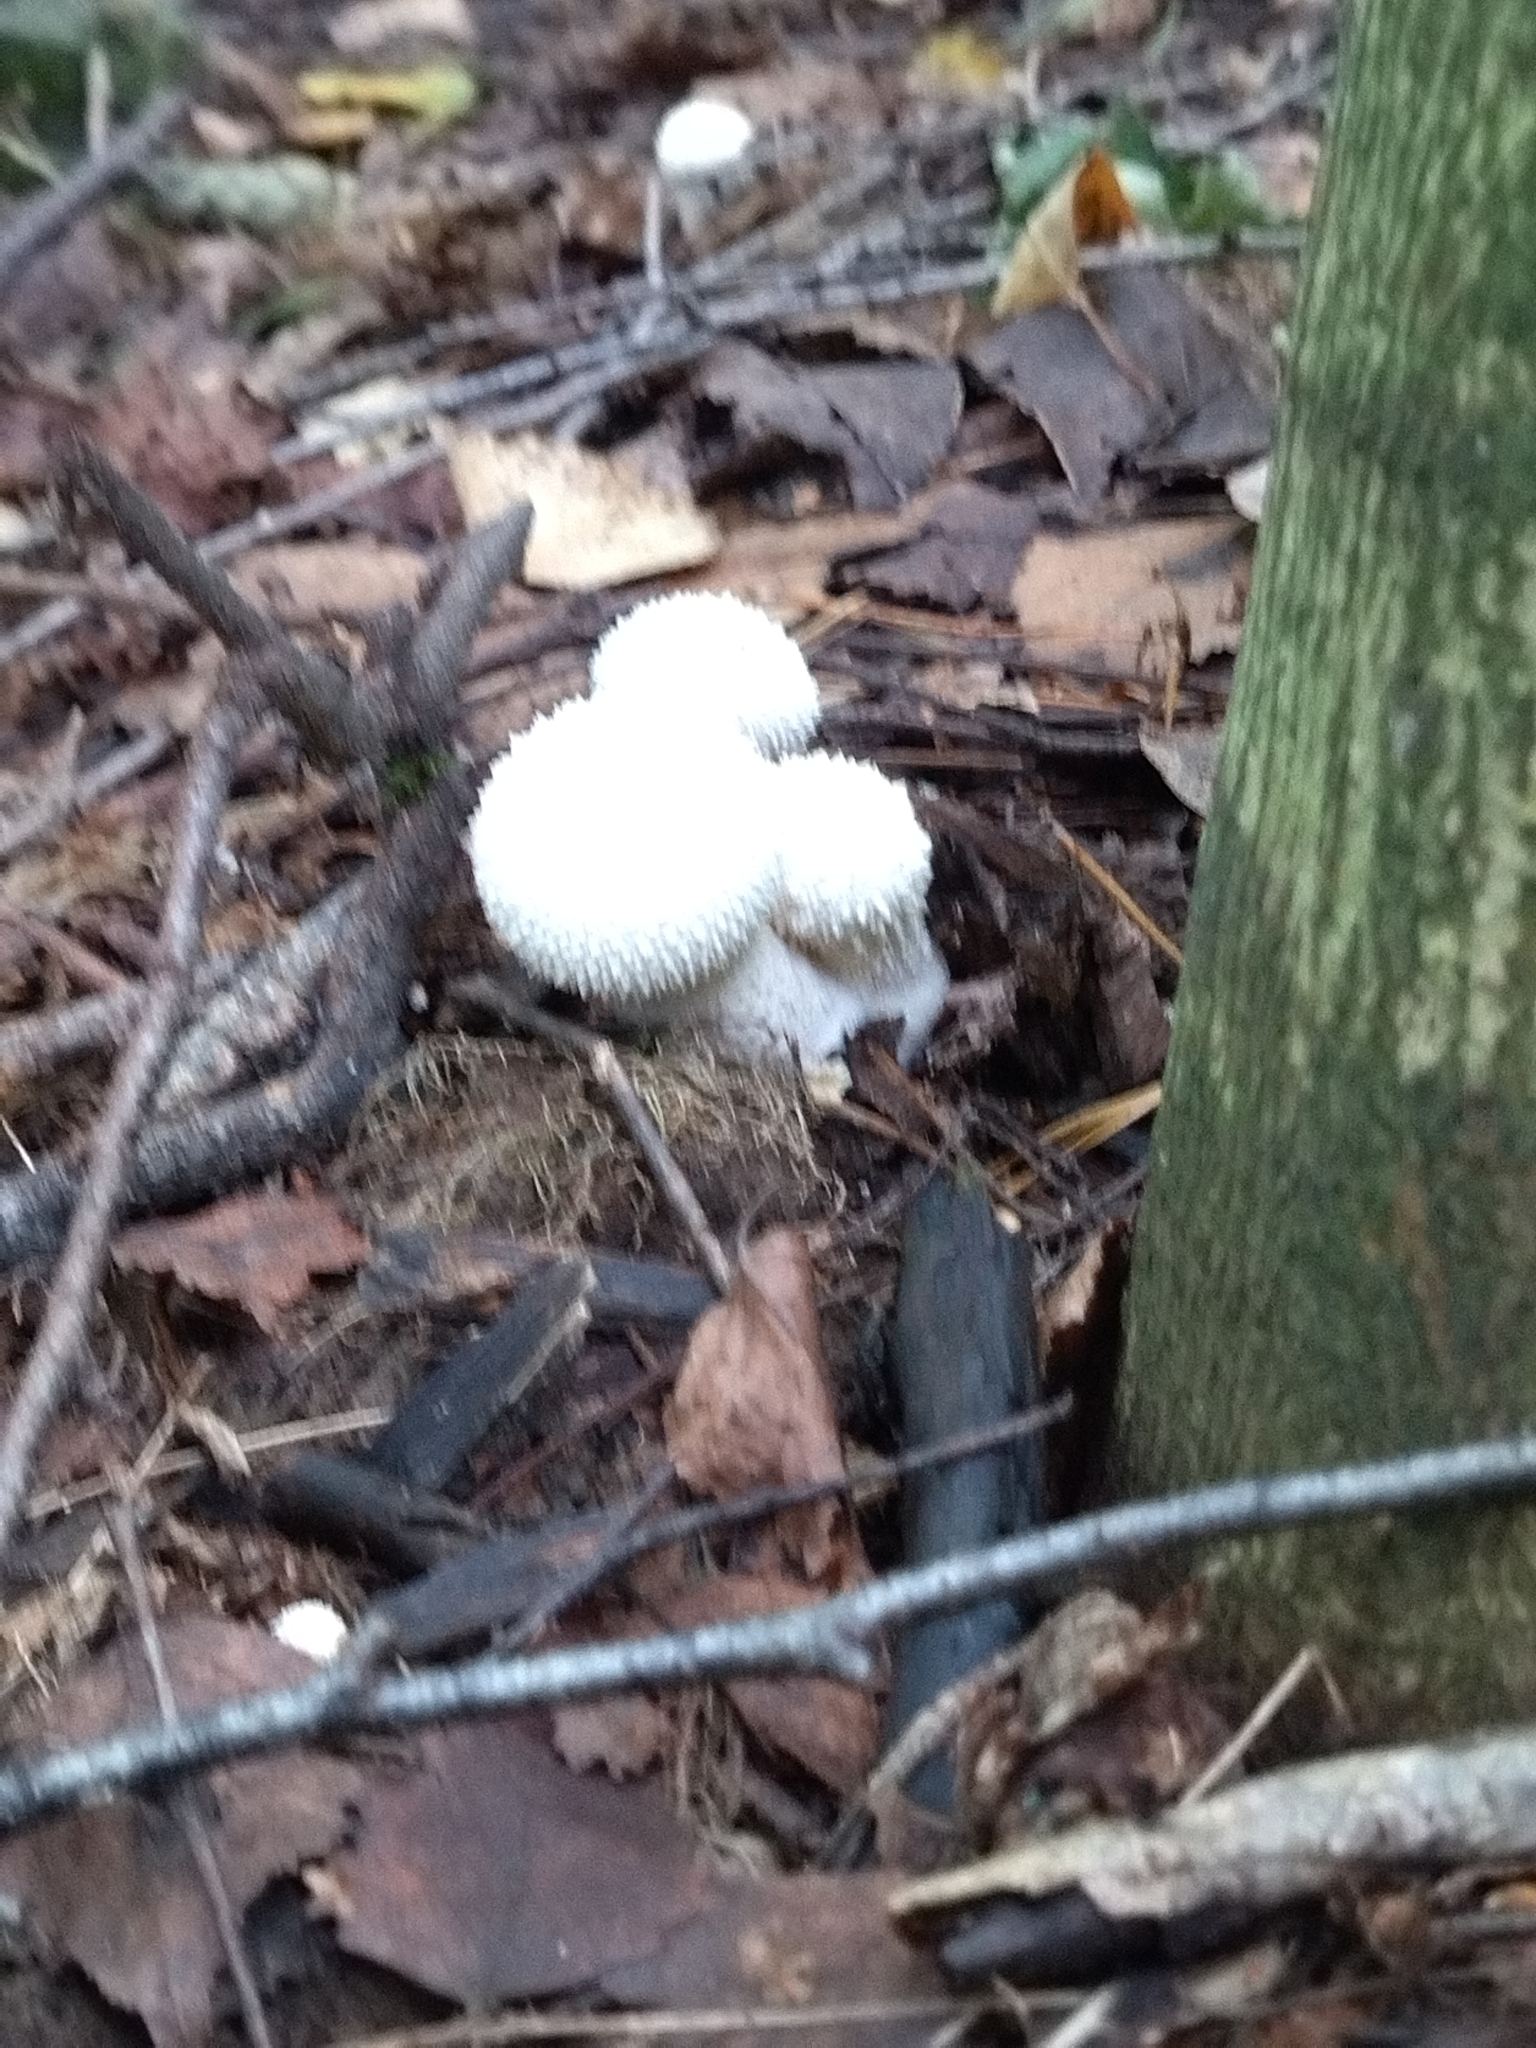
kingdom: Fungi
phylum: Basidiomycota
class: Agaricomycetes
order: Agaricales
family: Lycoperdaceae
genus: Lycoperdon
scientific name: Lycoperdon perlatum
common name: Common puffball
